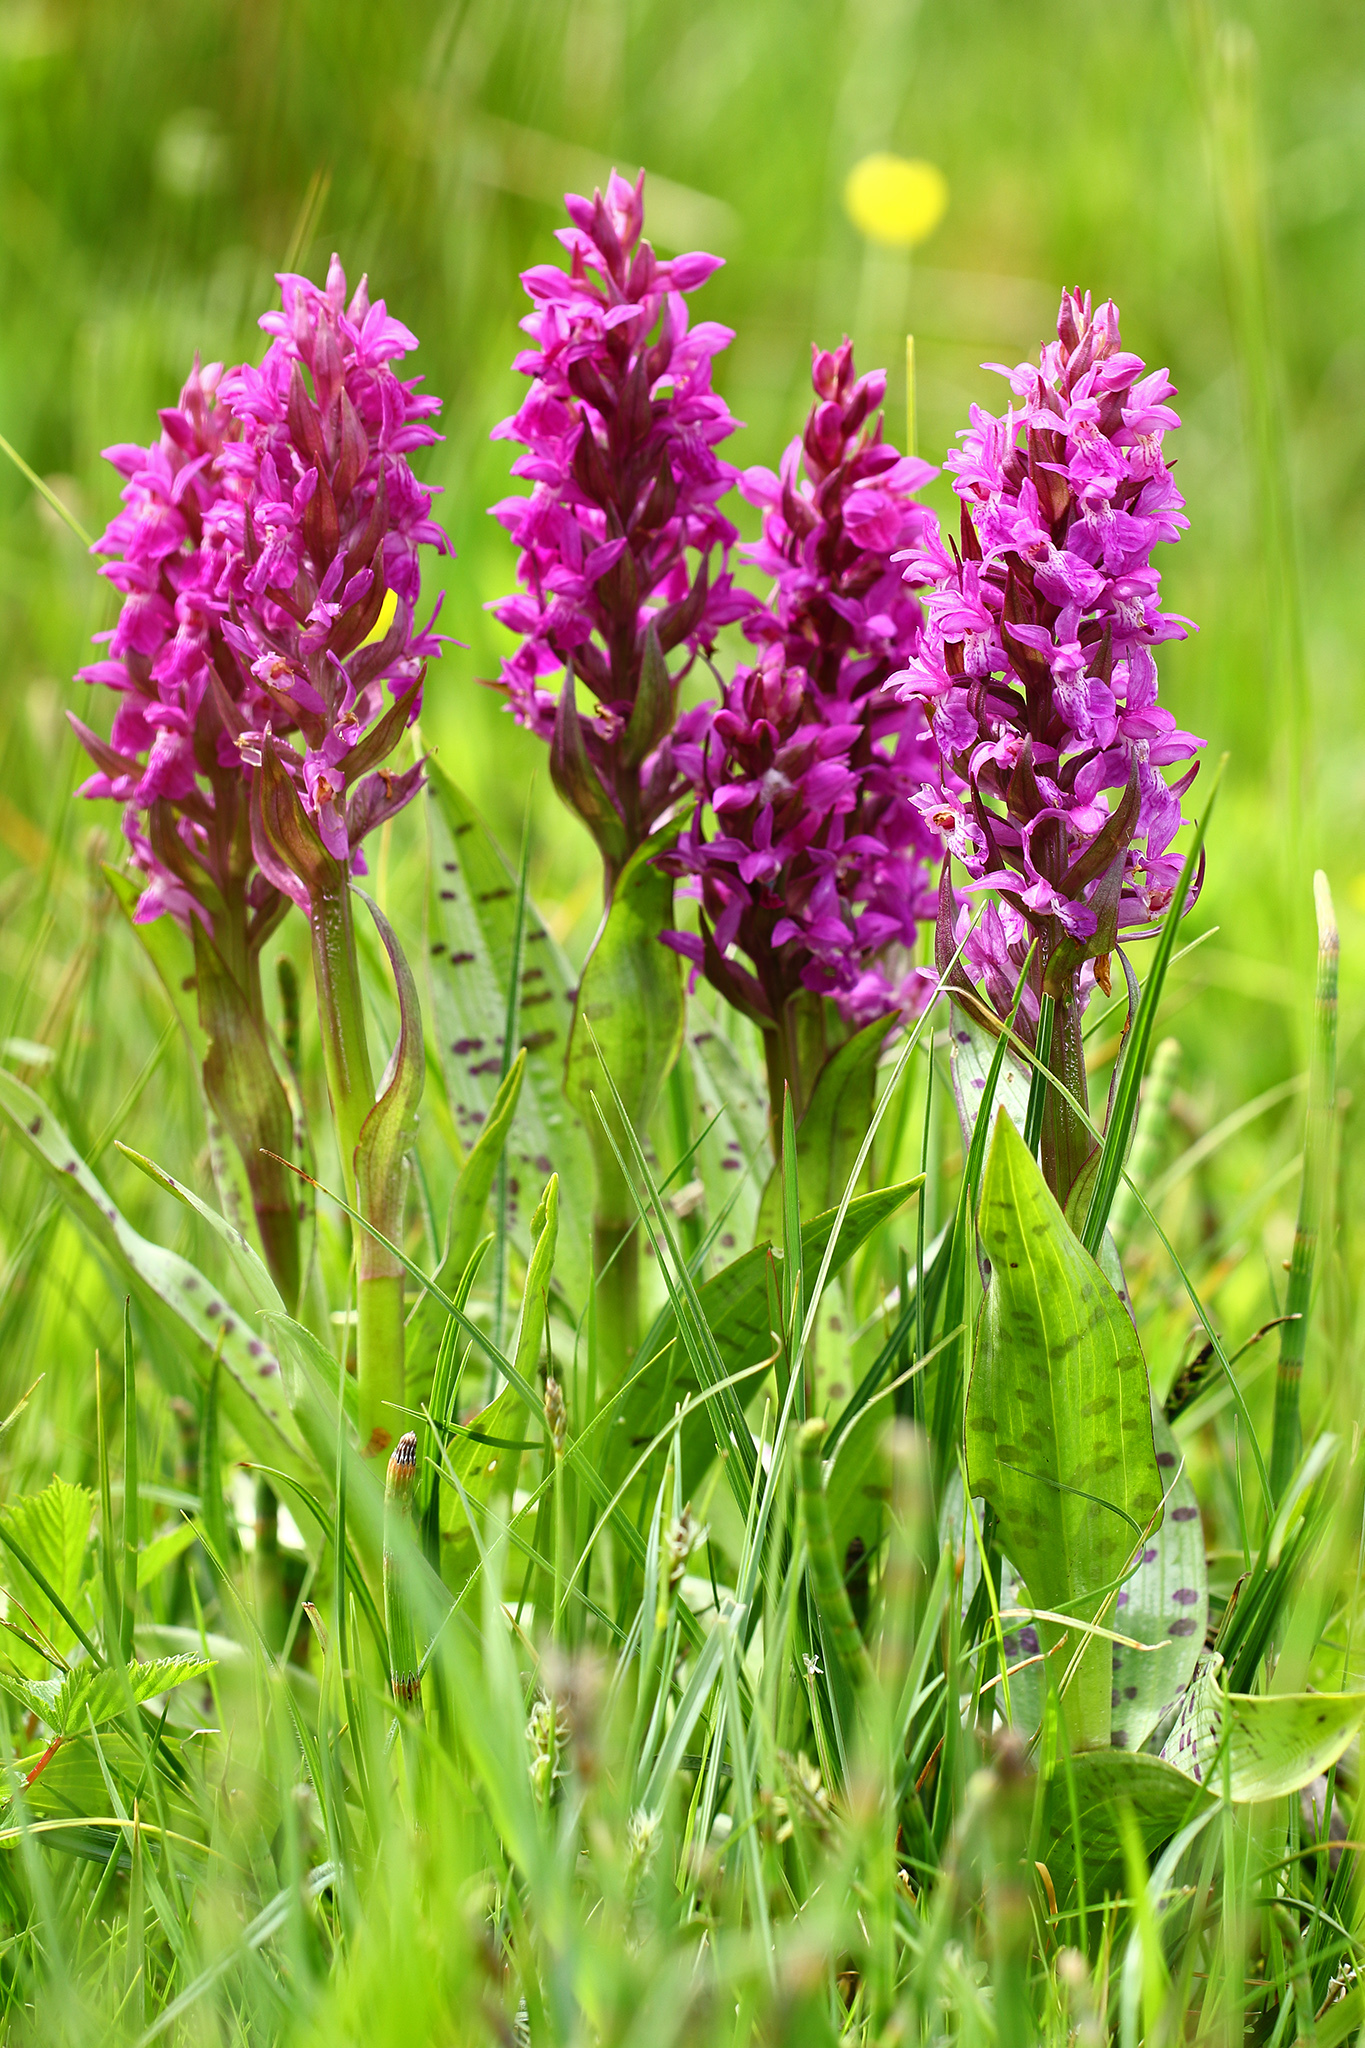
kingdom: Plantae
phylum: Tracheophyta
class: Liliopsida
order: Asparagales
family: Orchidaceae
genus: Dactylorhiza
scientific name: Dactylorhiza majalis
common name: Marsh orchid
